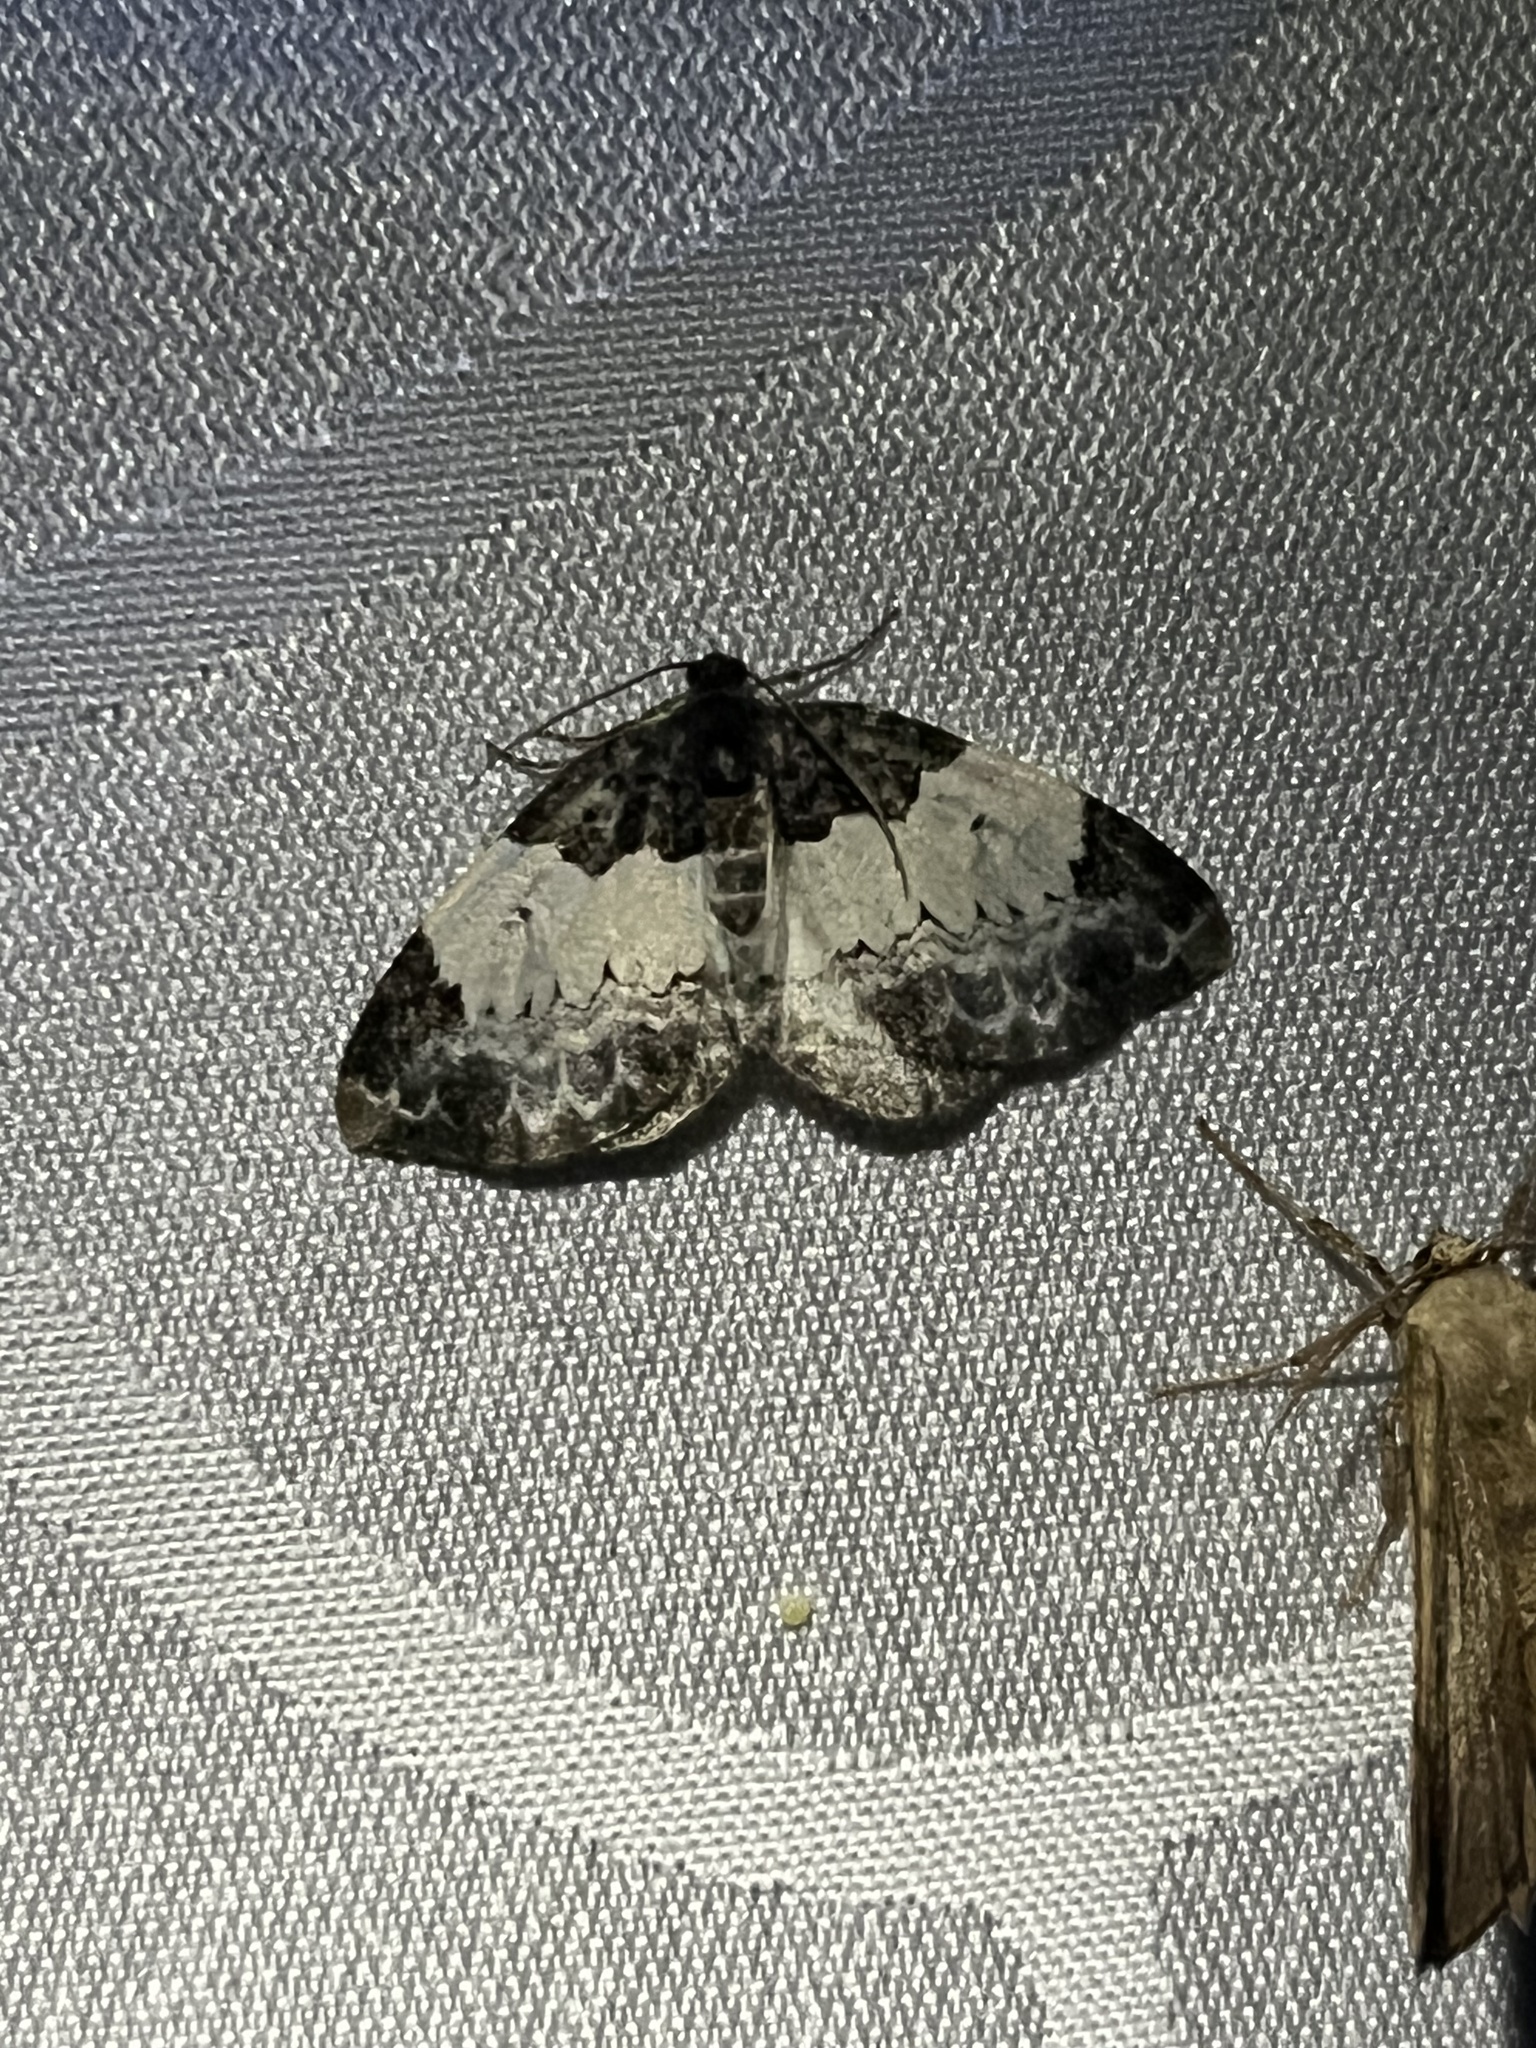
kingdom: Animalia
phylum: Arthropoda
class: Insecta
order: Lepidoptera
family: Geometridae
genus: Mesoleuca
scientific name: Mesoleuca ruficillata
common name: White-ribboned carpet moth
